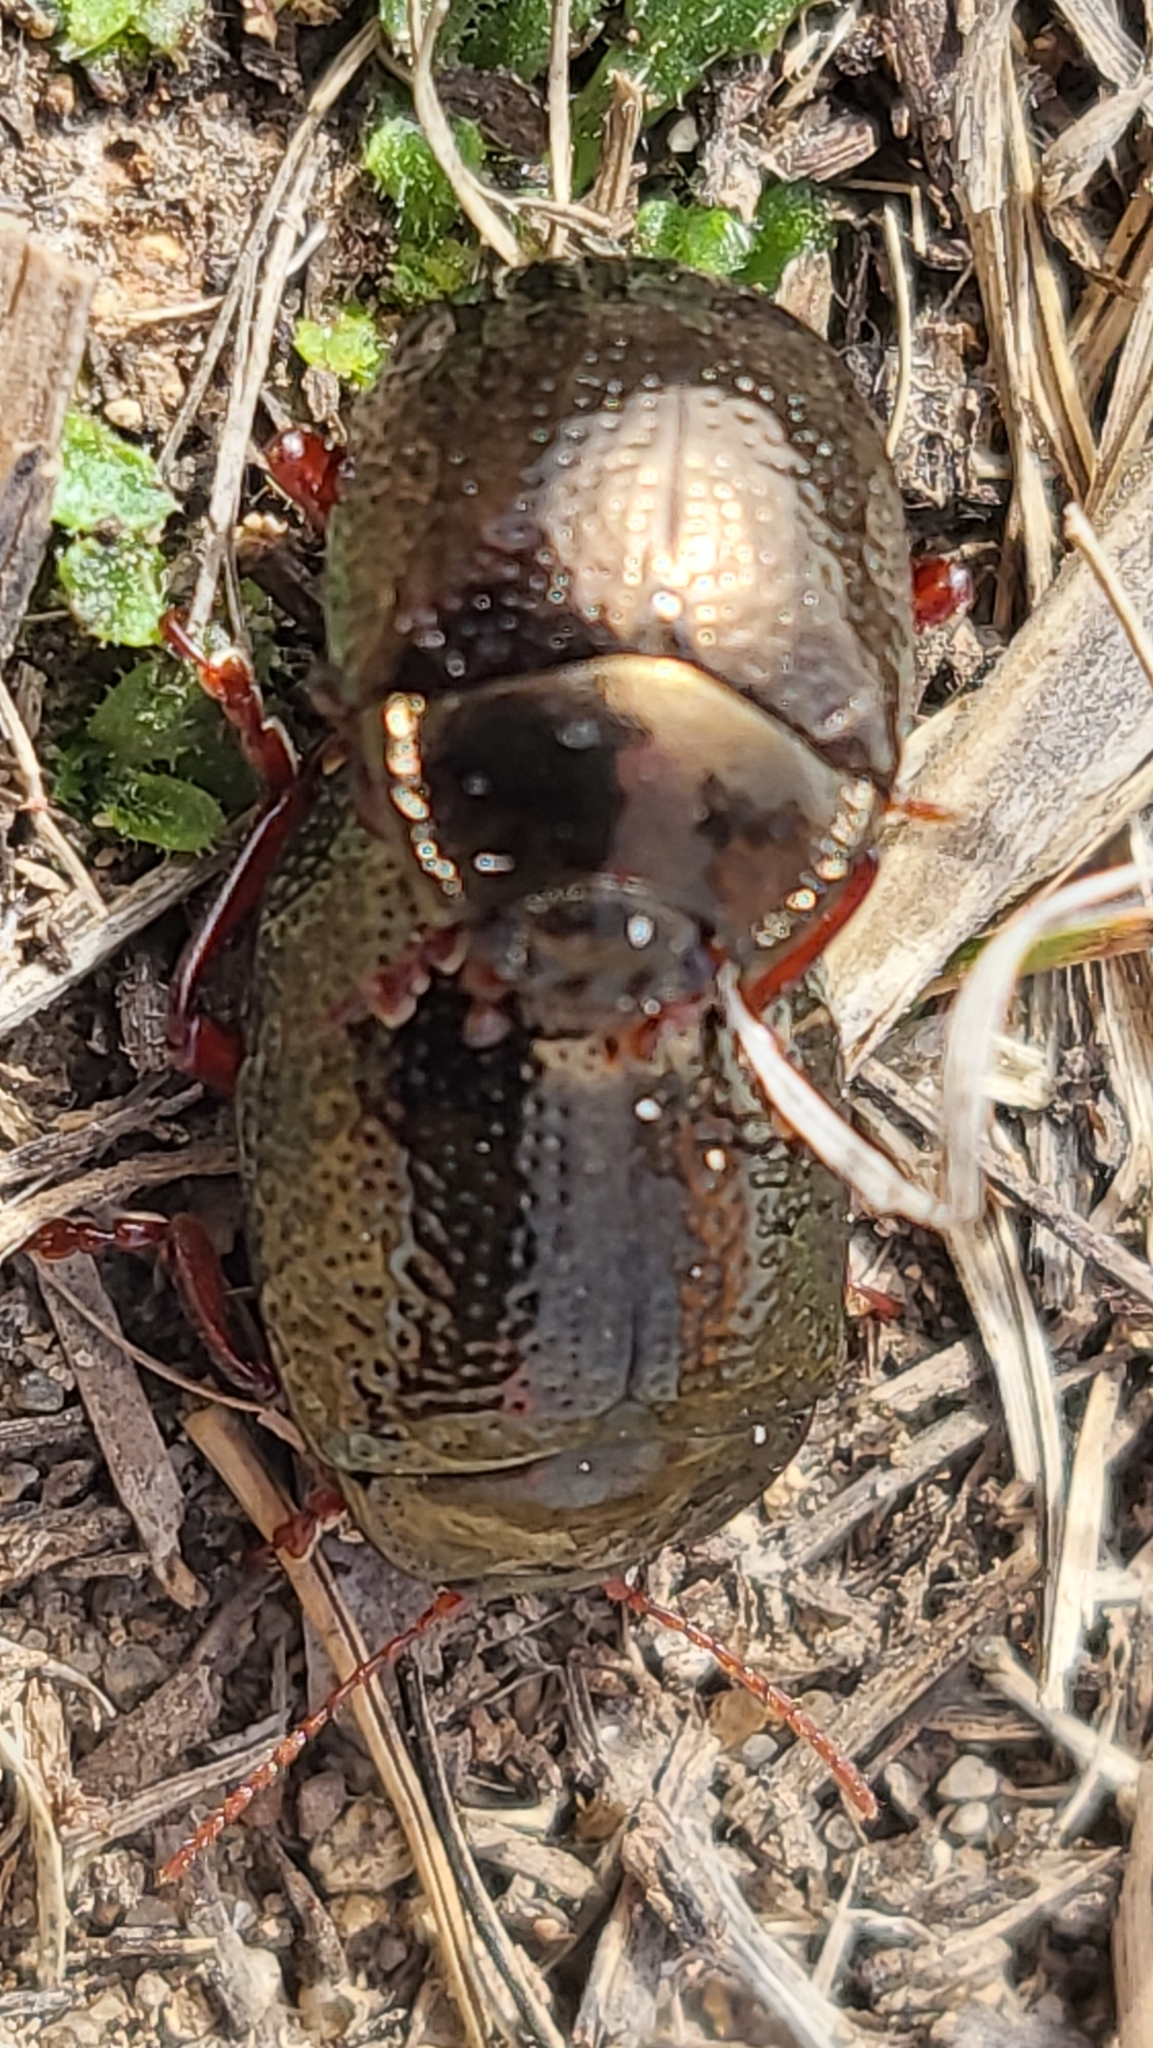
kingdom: Animalia
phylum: Arthropoda
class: Insecta
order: Coleoptera
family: Chrysomelidae
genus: Chrysolina
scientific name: Chrysolina bankii
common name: Leaf beetle
